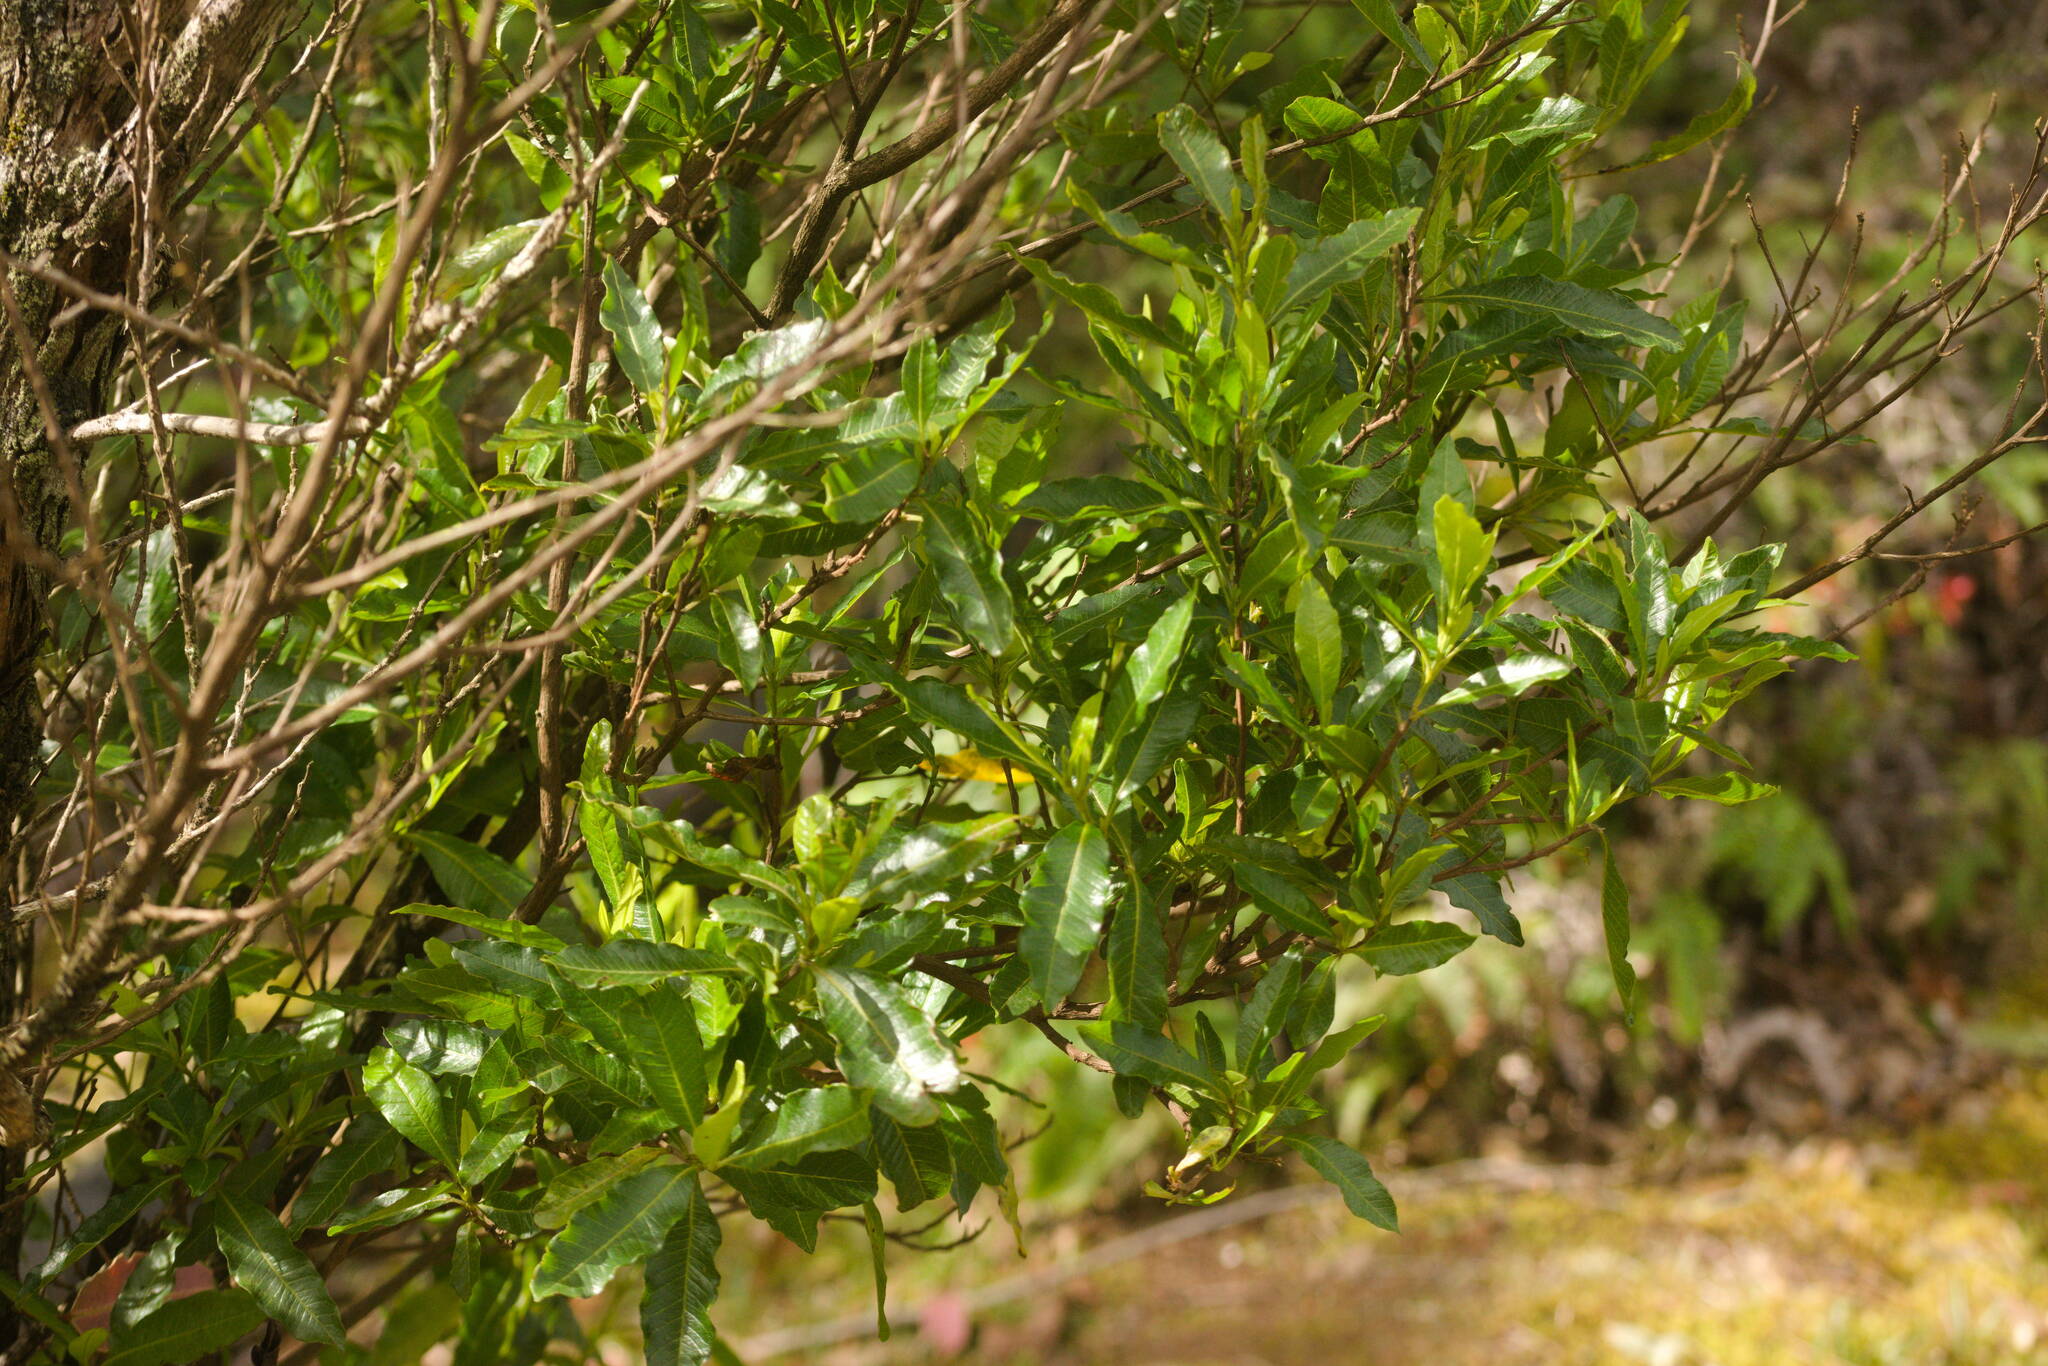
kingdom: Plantae
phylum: Tracheophyta
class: Magnoliopsida
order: Sapindales
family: Sapindaceae
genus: Dodonaea
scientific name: Dodonaea viscosa
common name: Hopbush
